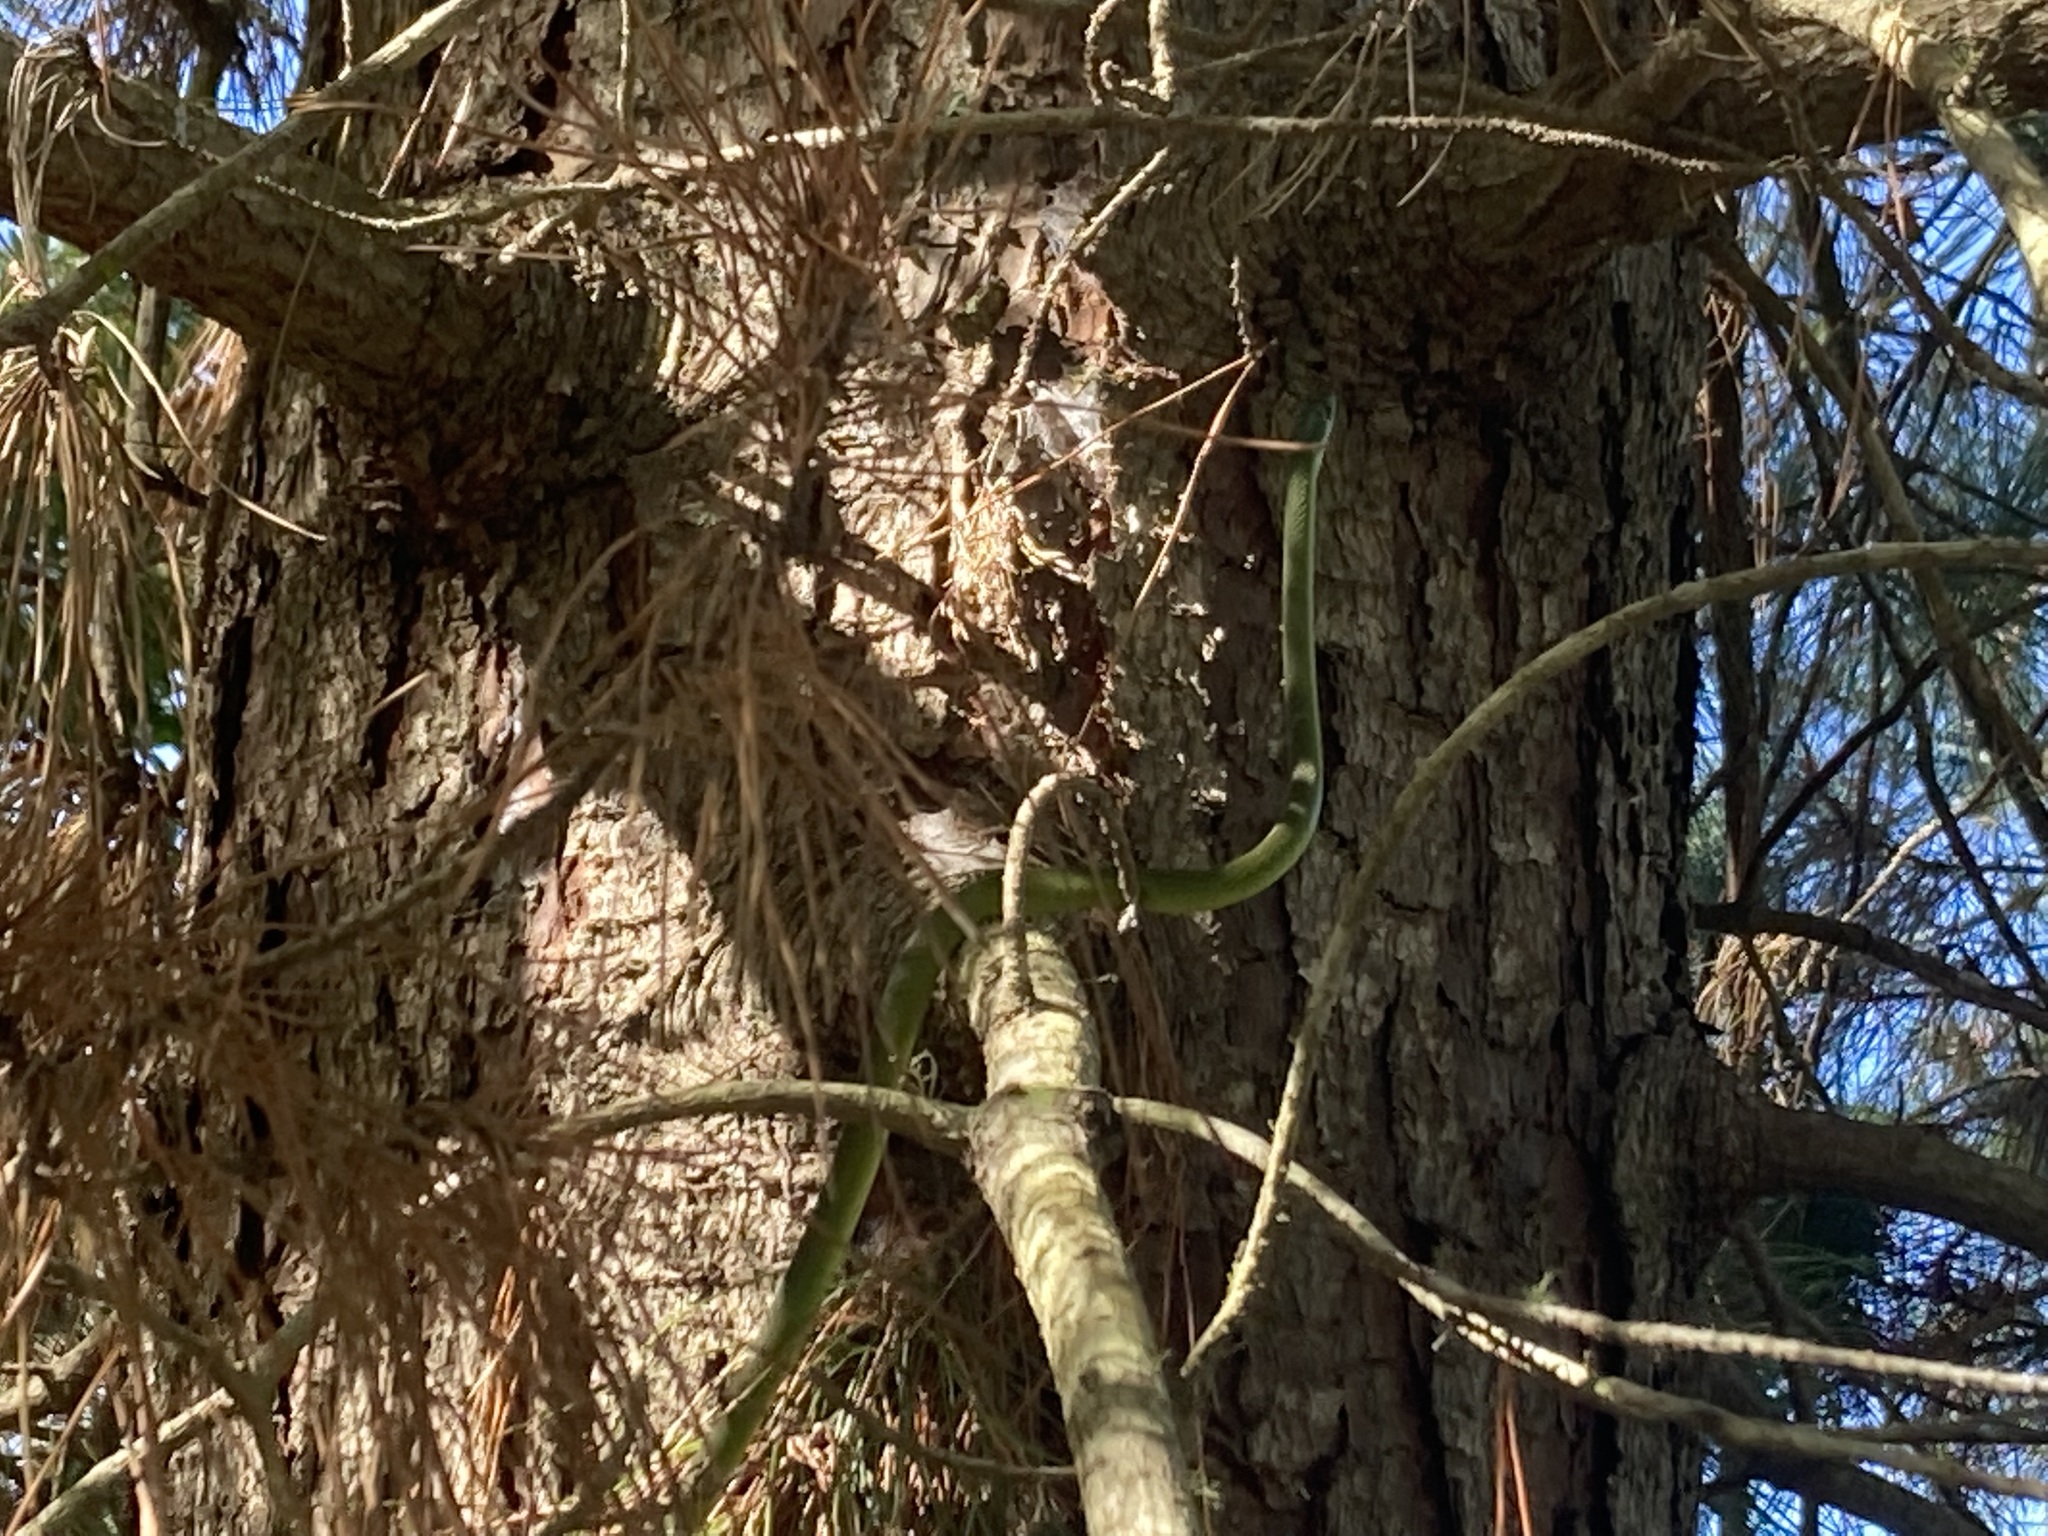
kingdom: Animalia
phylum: Chordata
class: Squamata
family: Colubridae
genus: Philothamnus
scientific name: Philothamnus occidentalis
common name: Western natal green snake
